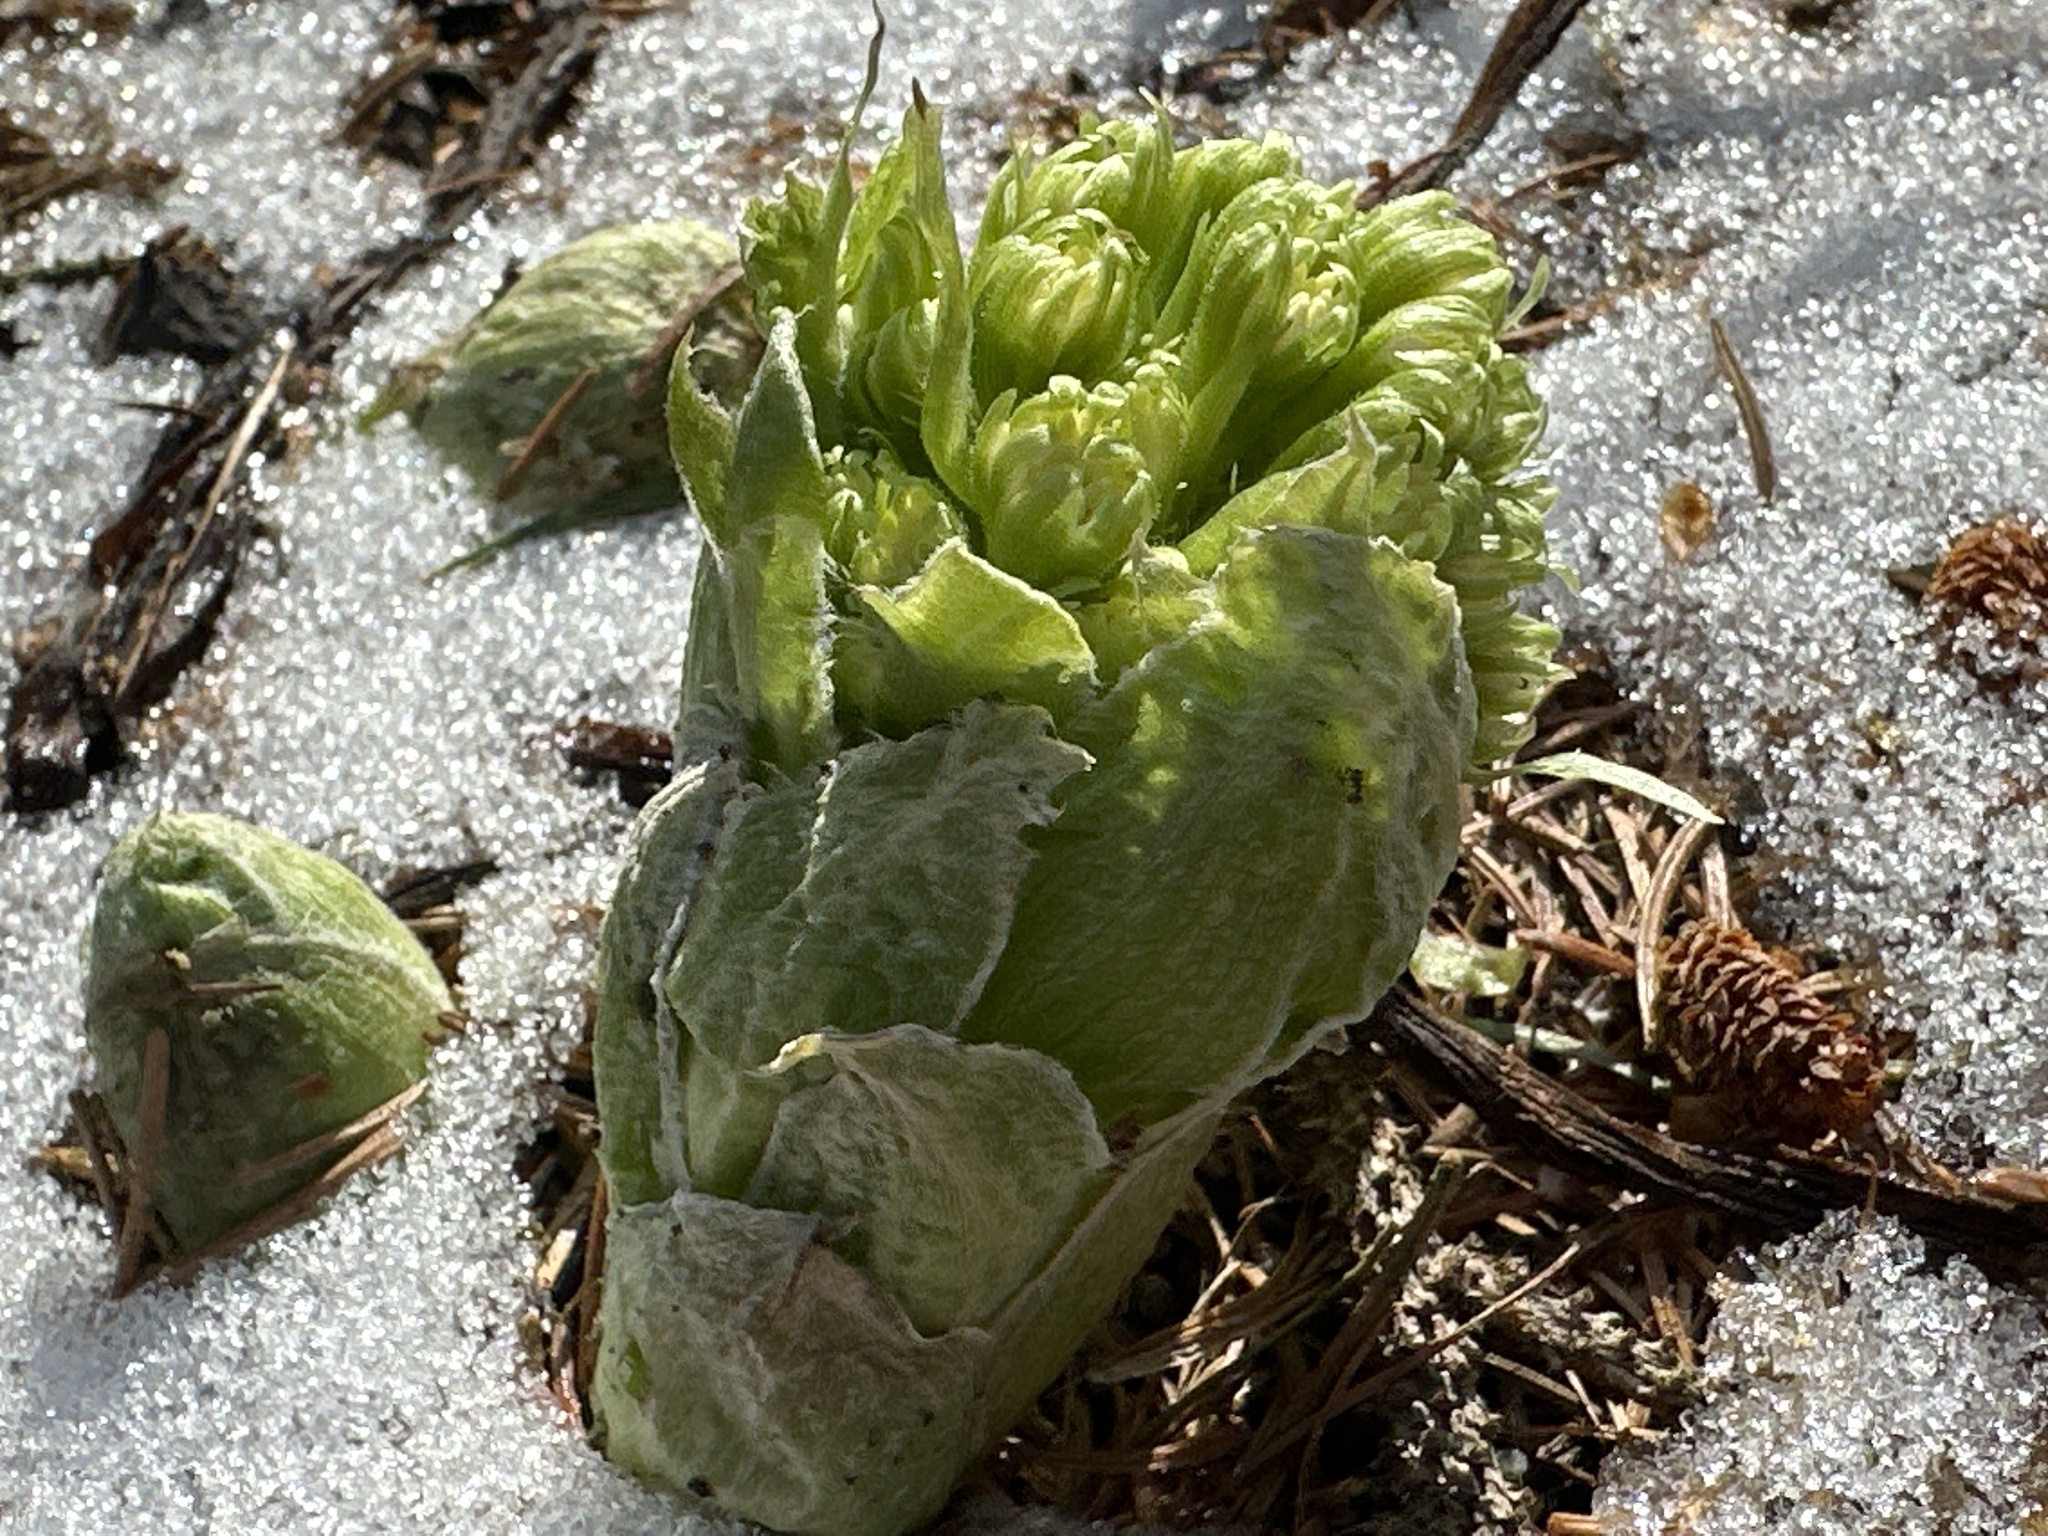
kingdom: Plantae
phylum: Tracheophyta
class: Magnoliopsida
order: Asterales
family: Asteraceae
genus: Petasites
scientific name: Petasites albus
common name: White butterbur
